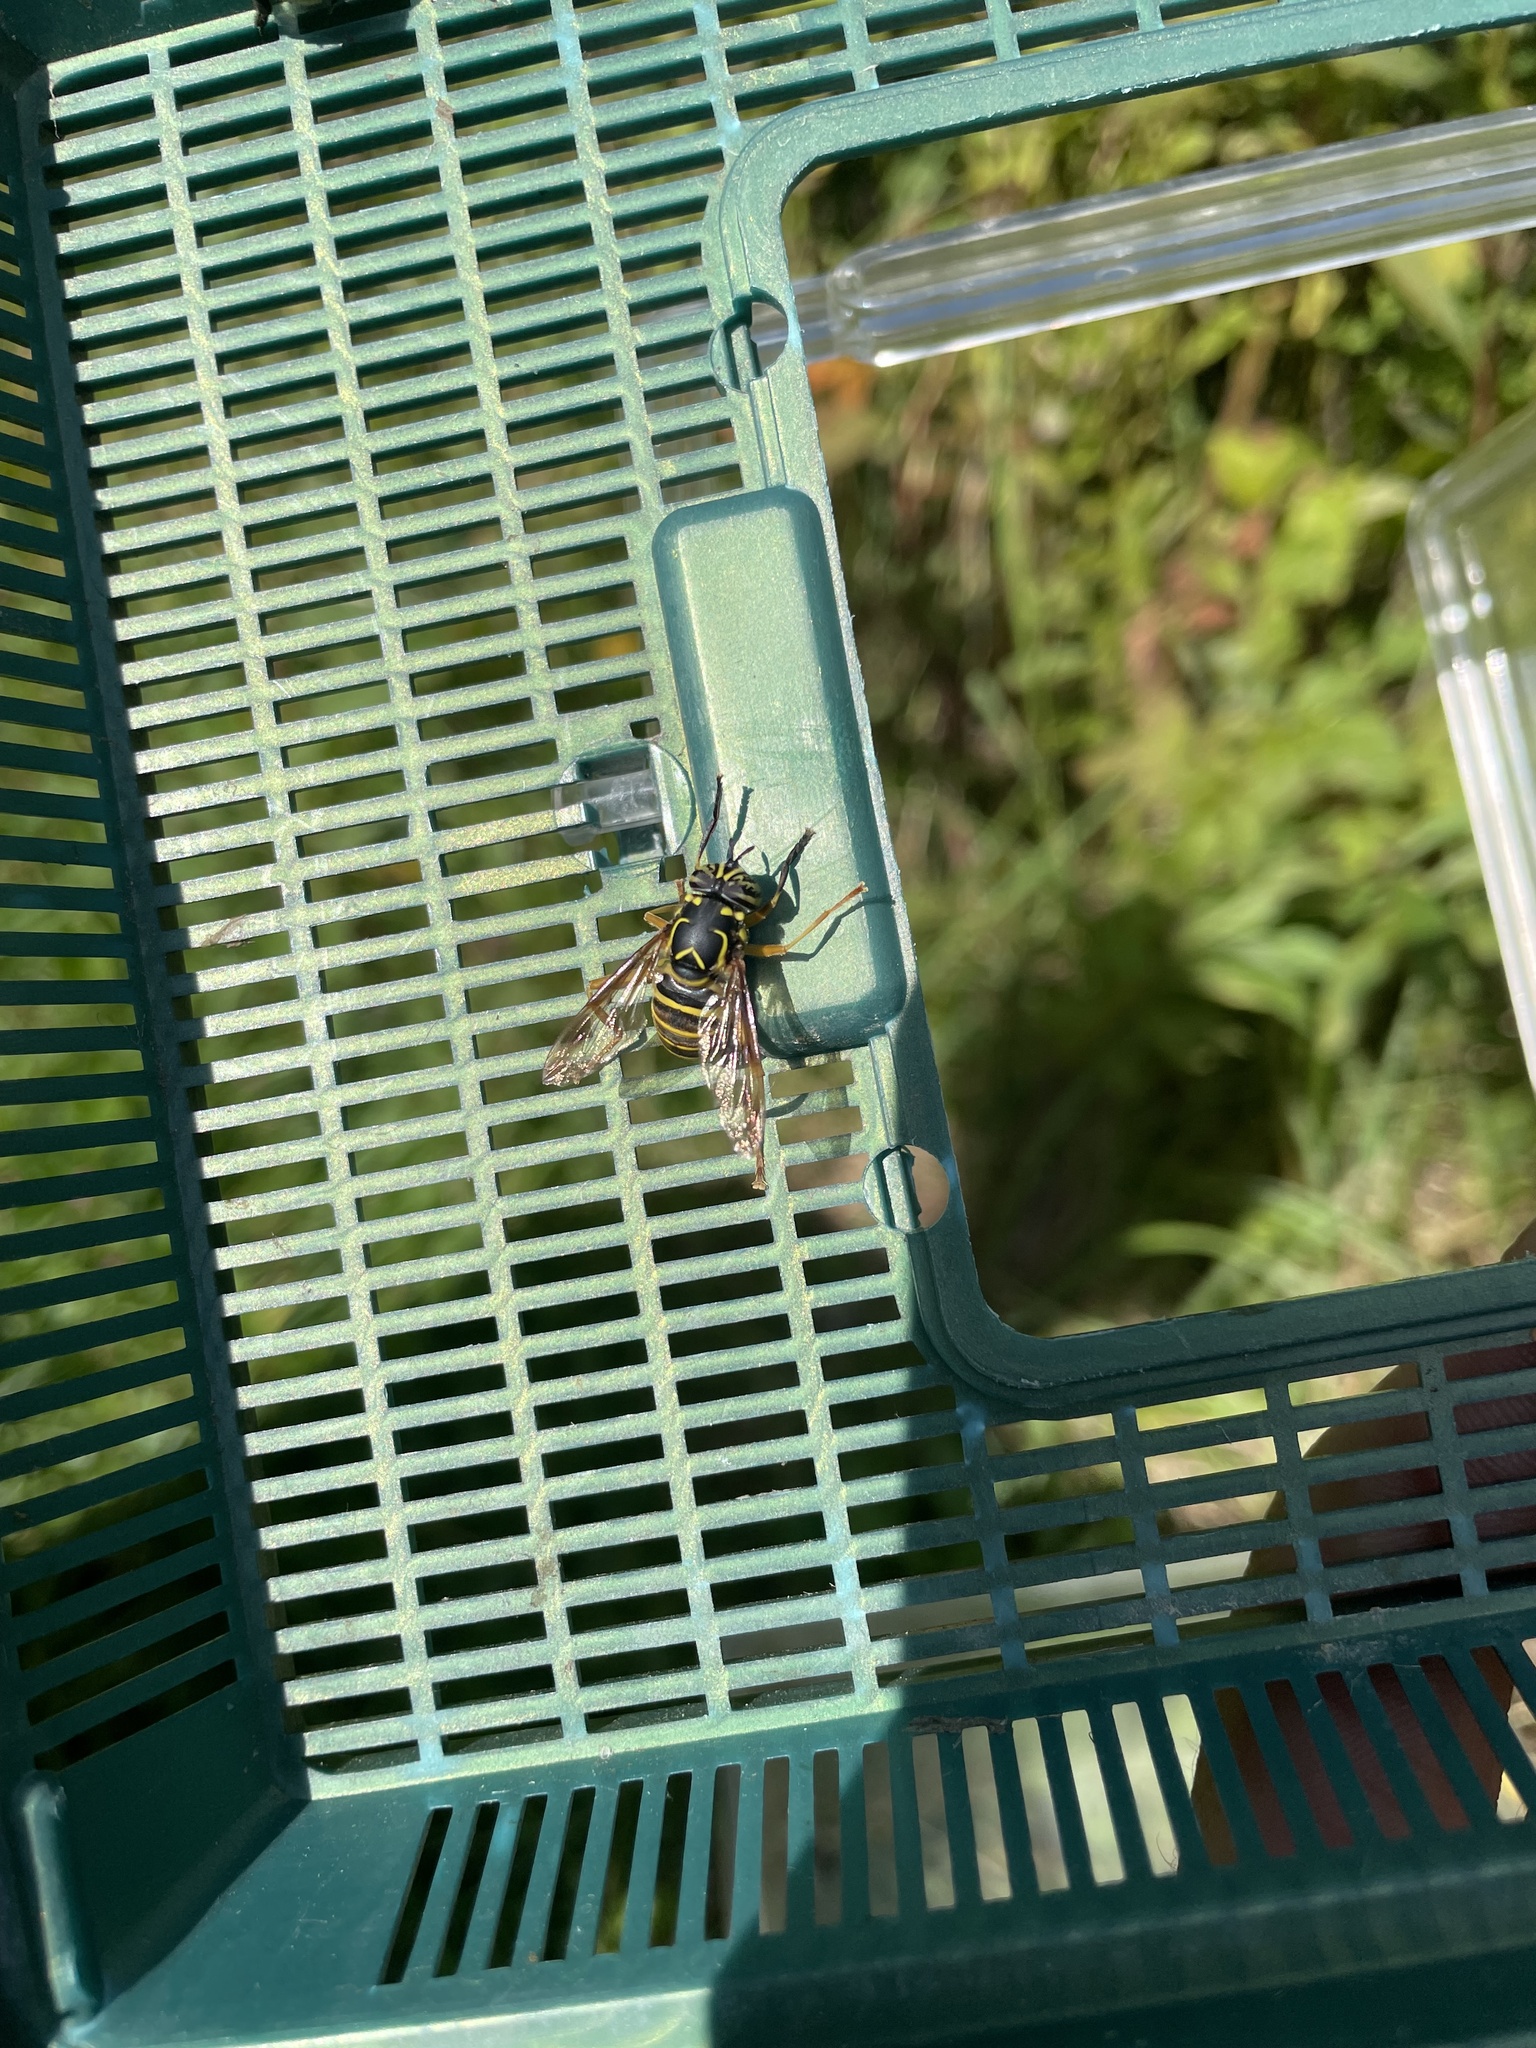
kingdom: Animalia
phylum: Arthropoda
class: Insecta
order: Diptera
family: Syrphidae
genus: Spilomyia
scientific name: Spilomyia longicornis
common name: Eastern hornet fly
